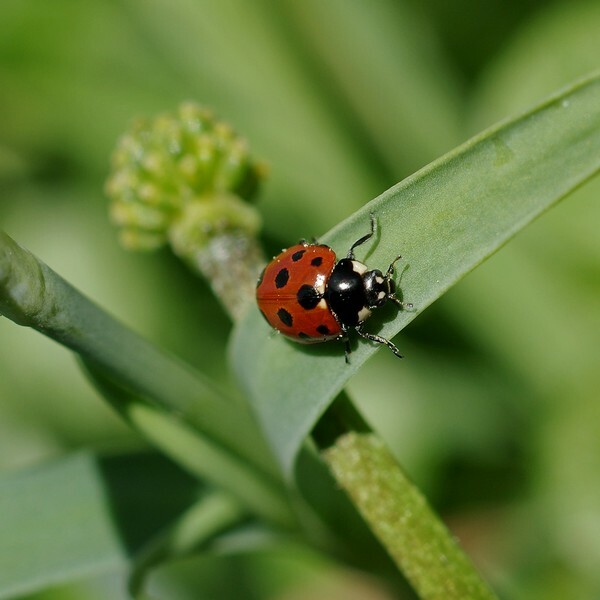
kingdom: Animalia
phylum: Arthropoda
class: Insecta
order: Coleoptera
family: Coccinellidae
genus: Coccinella
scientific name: Coccinella undecimpunctata
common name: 11-spot ladybird
